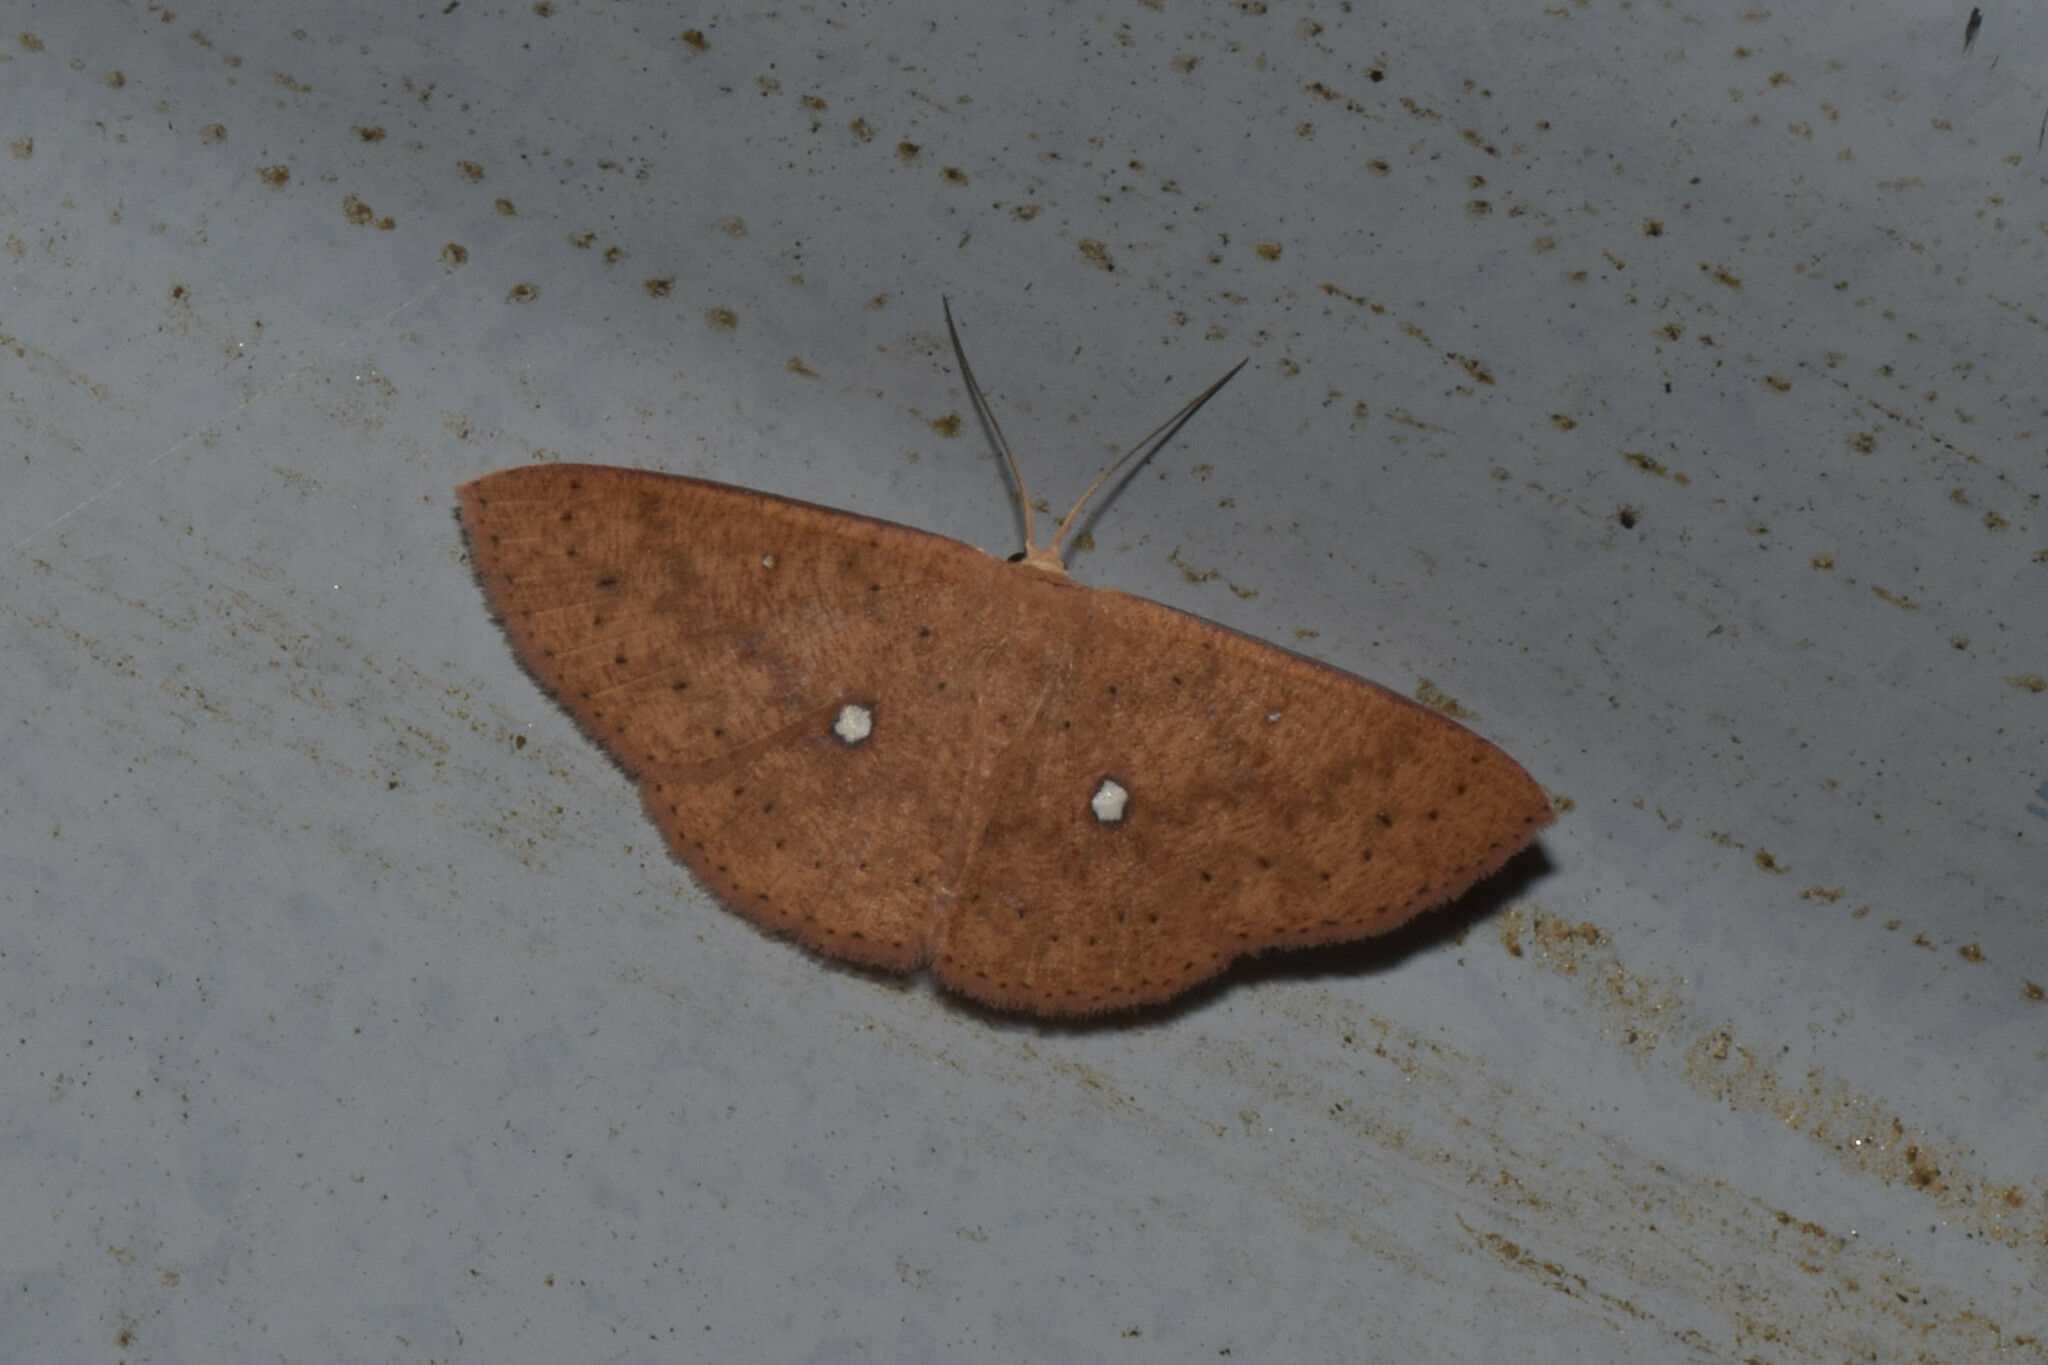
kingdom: Animalia
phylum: Arthropoda
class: Insecta
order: Lepidoptera
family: Geometridae
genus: Perixera
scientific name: Perixera monetaria
